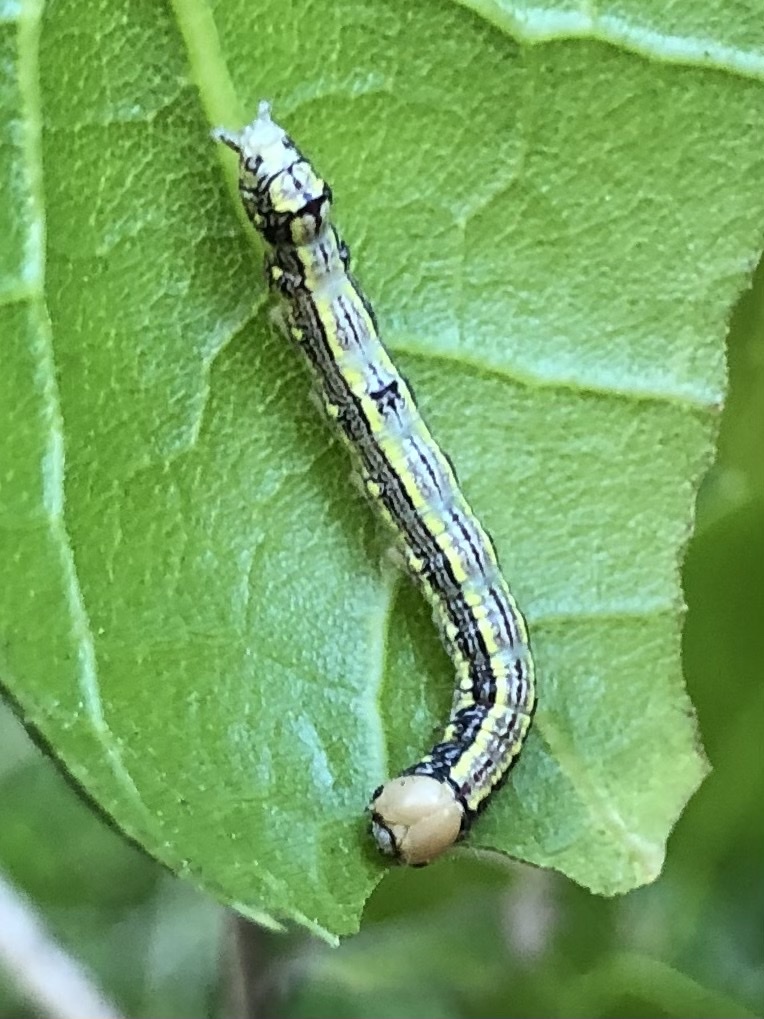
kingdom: Animalia
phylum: Arthropoda
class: Insecta
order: Lepidoptera
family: Notodontidae
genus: Phryganidia
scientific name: Phryganidia californica
